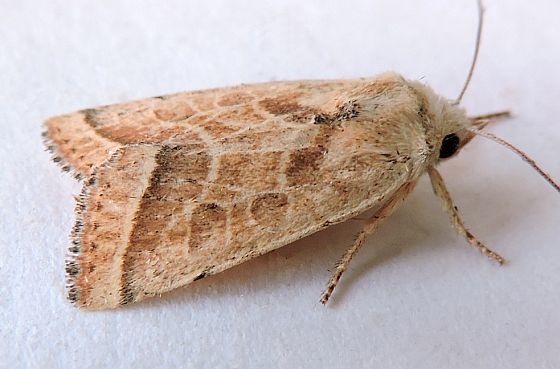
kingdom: Animalia
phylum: Arthropoda
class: Insecta
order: Lepidoptera
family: Noctuidae
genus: Eriopyga
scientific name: Eriopyga trifascia
